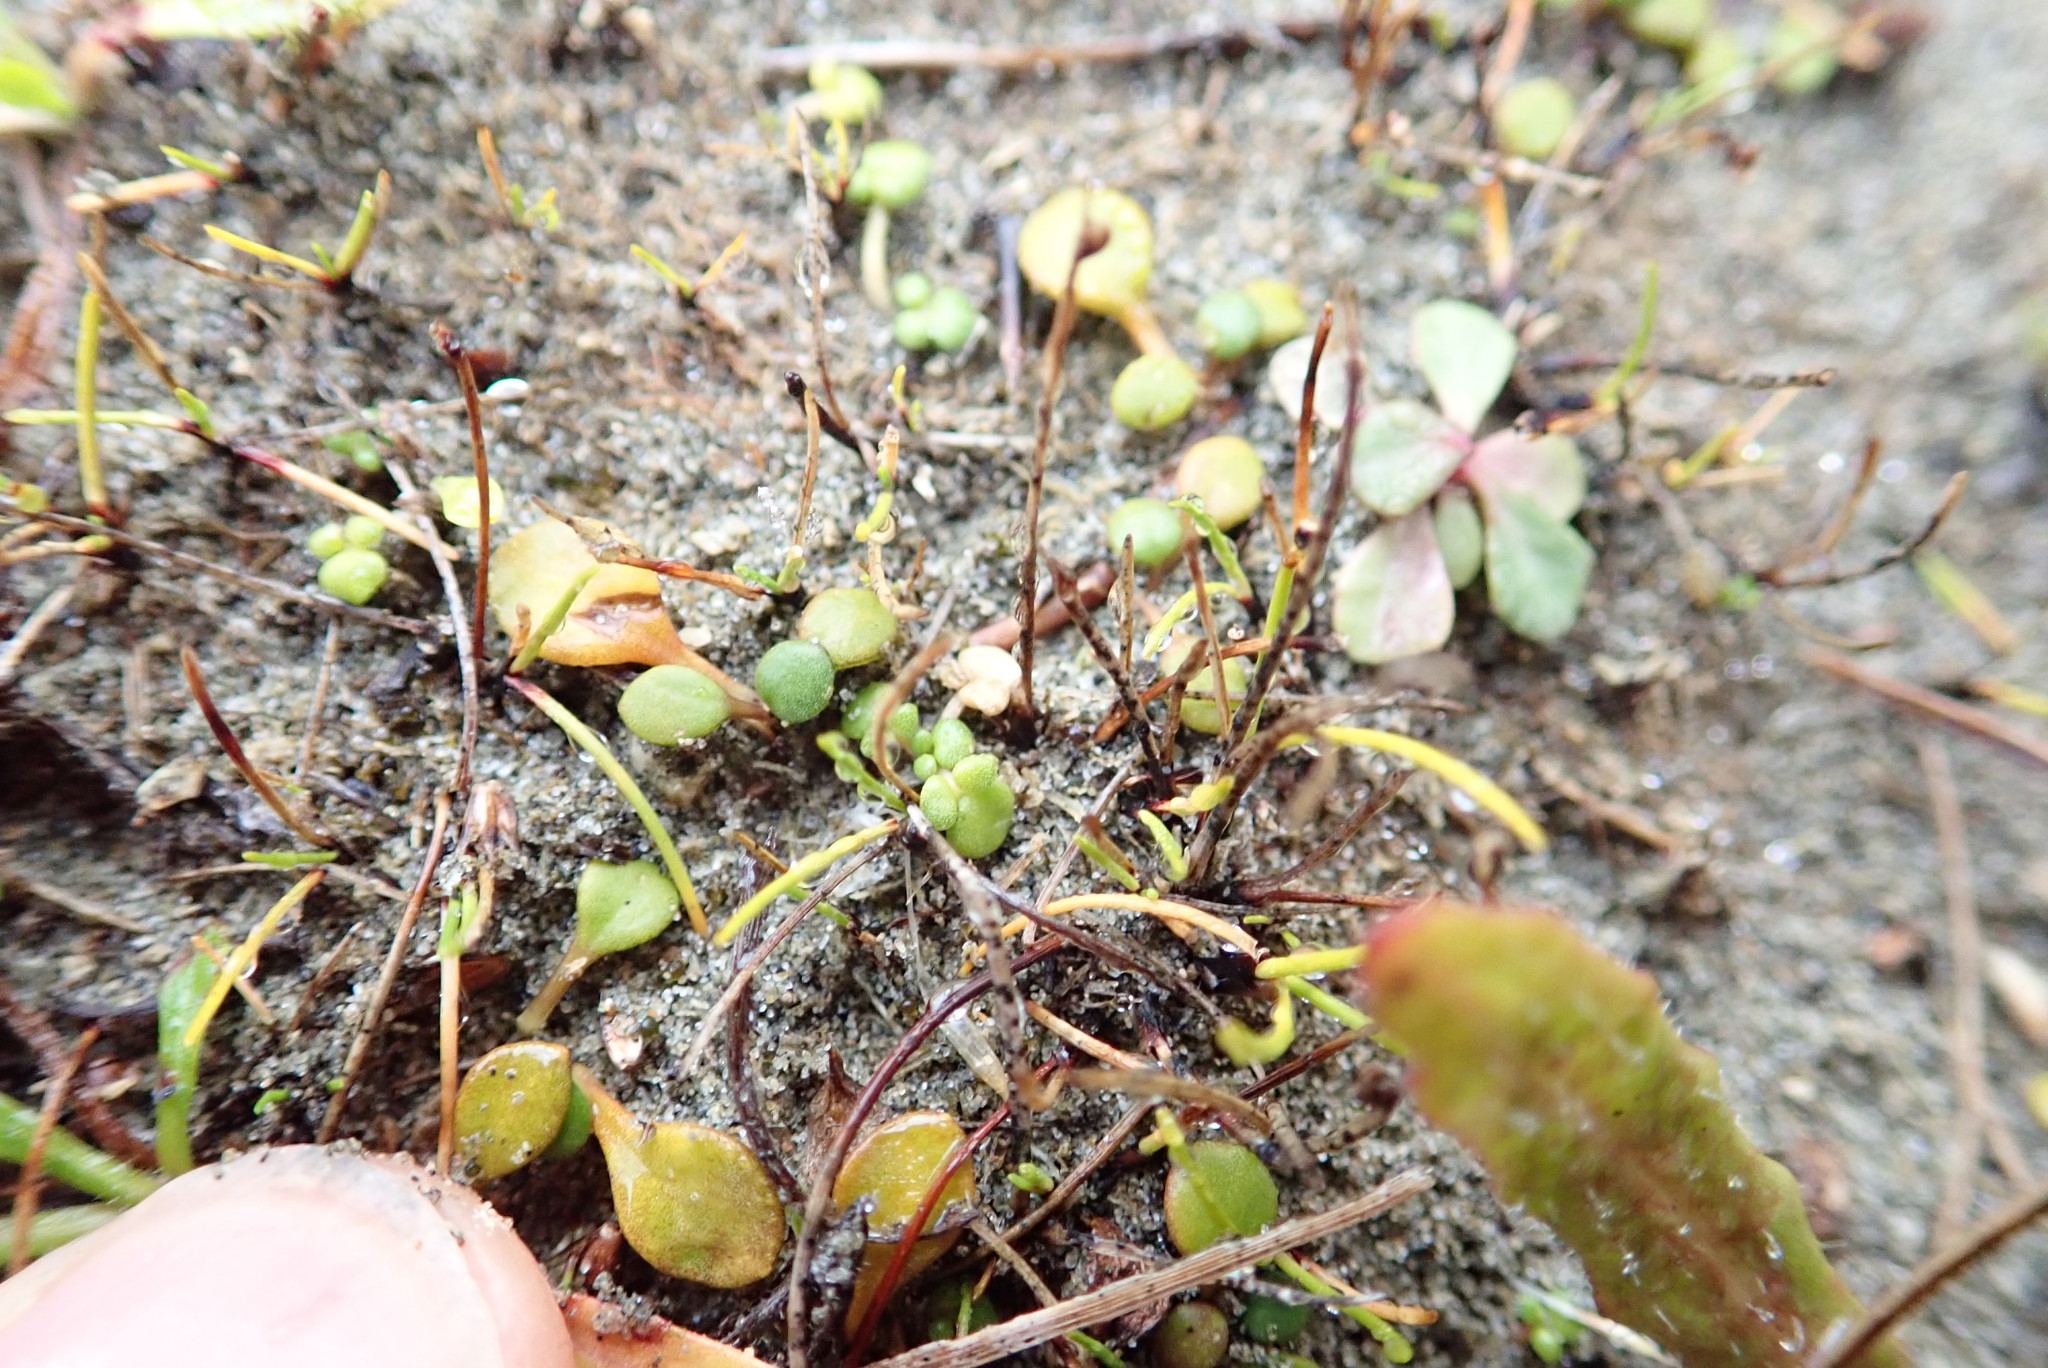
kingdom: Plantae
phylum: Tracheophyta
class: Magnoliopsida
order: Ranunculales
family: Ranunculaceae
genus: Ranunculus
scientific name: Ranunculus acaulis
